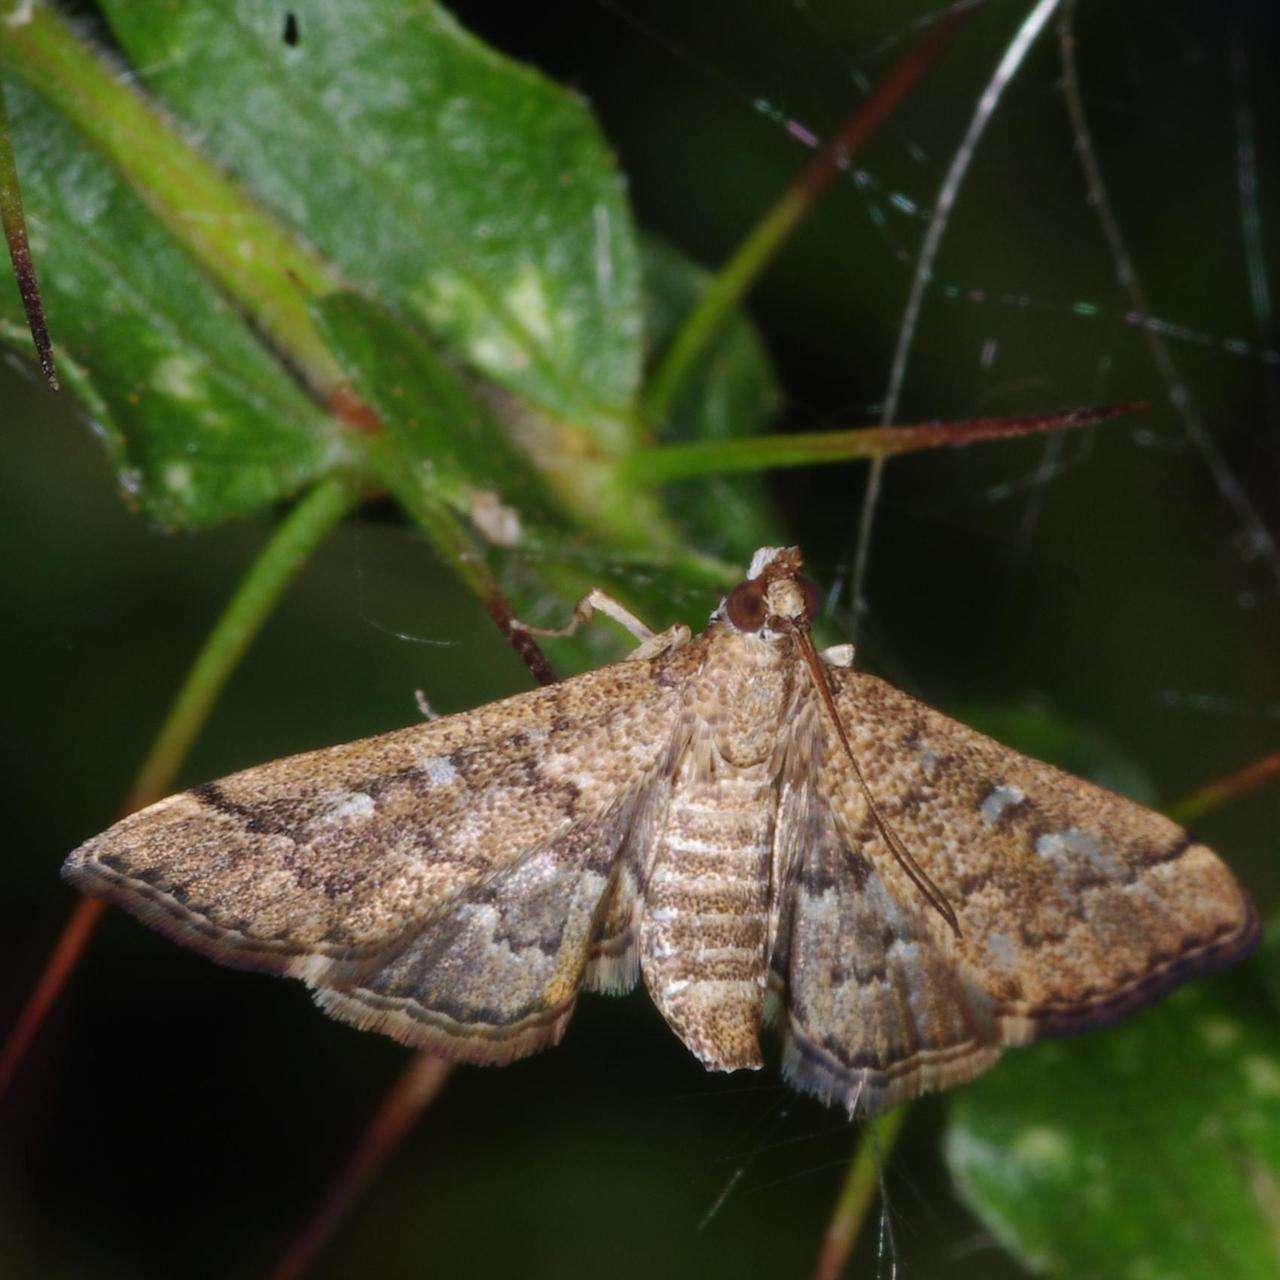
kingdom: Animalia
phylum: Arthropoda
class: Insecta
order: Lepidoptera
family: Crambidae
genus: Nacoleia
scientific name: Nacoleia rhoeoalis
